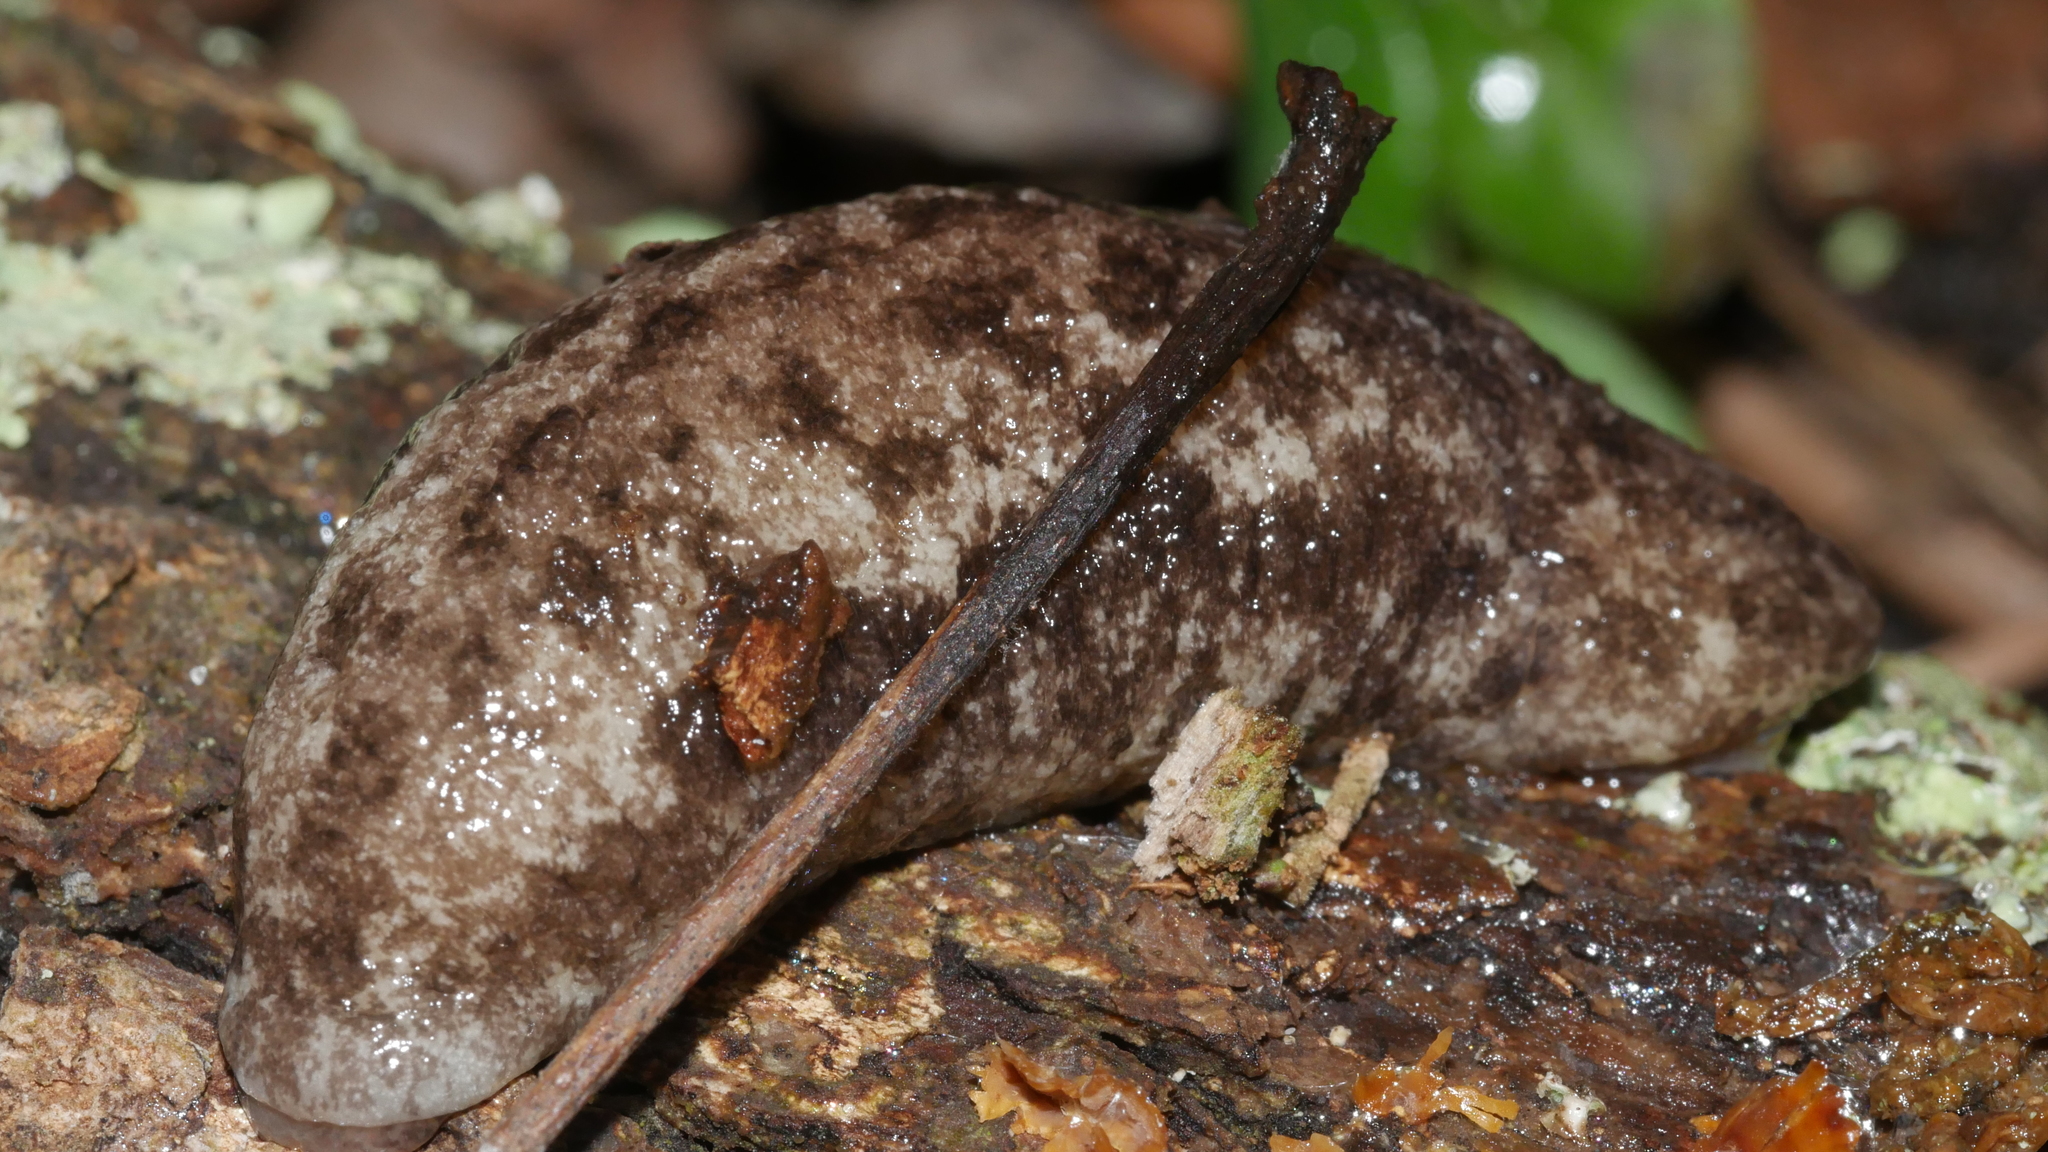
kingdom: Animalia
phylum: Mollusca
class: Gastropoda
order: Stylommatophora
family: Philomycidae
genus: Megapallifera
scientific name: Megapallifera mutabilis
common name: Changeable mantleslug
